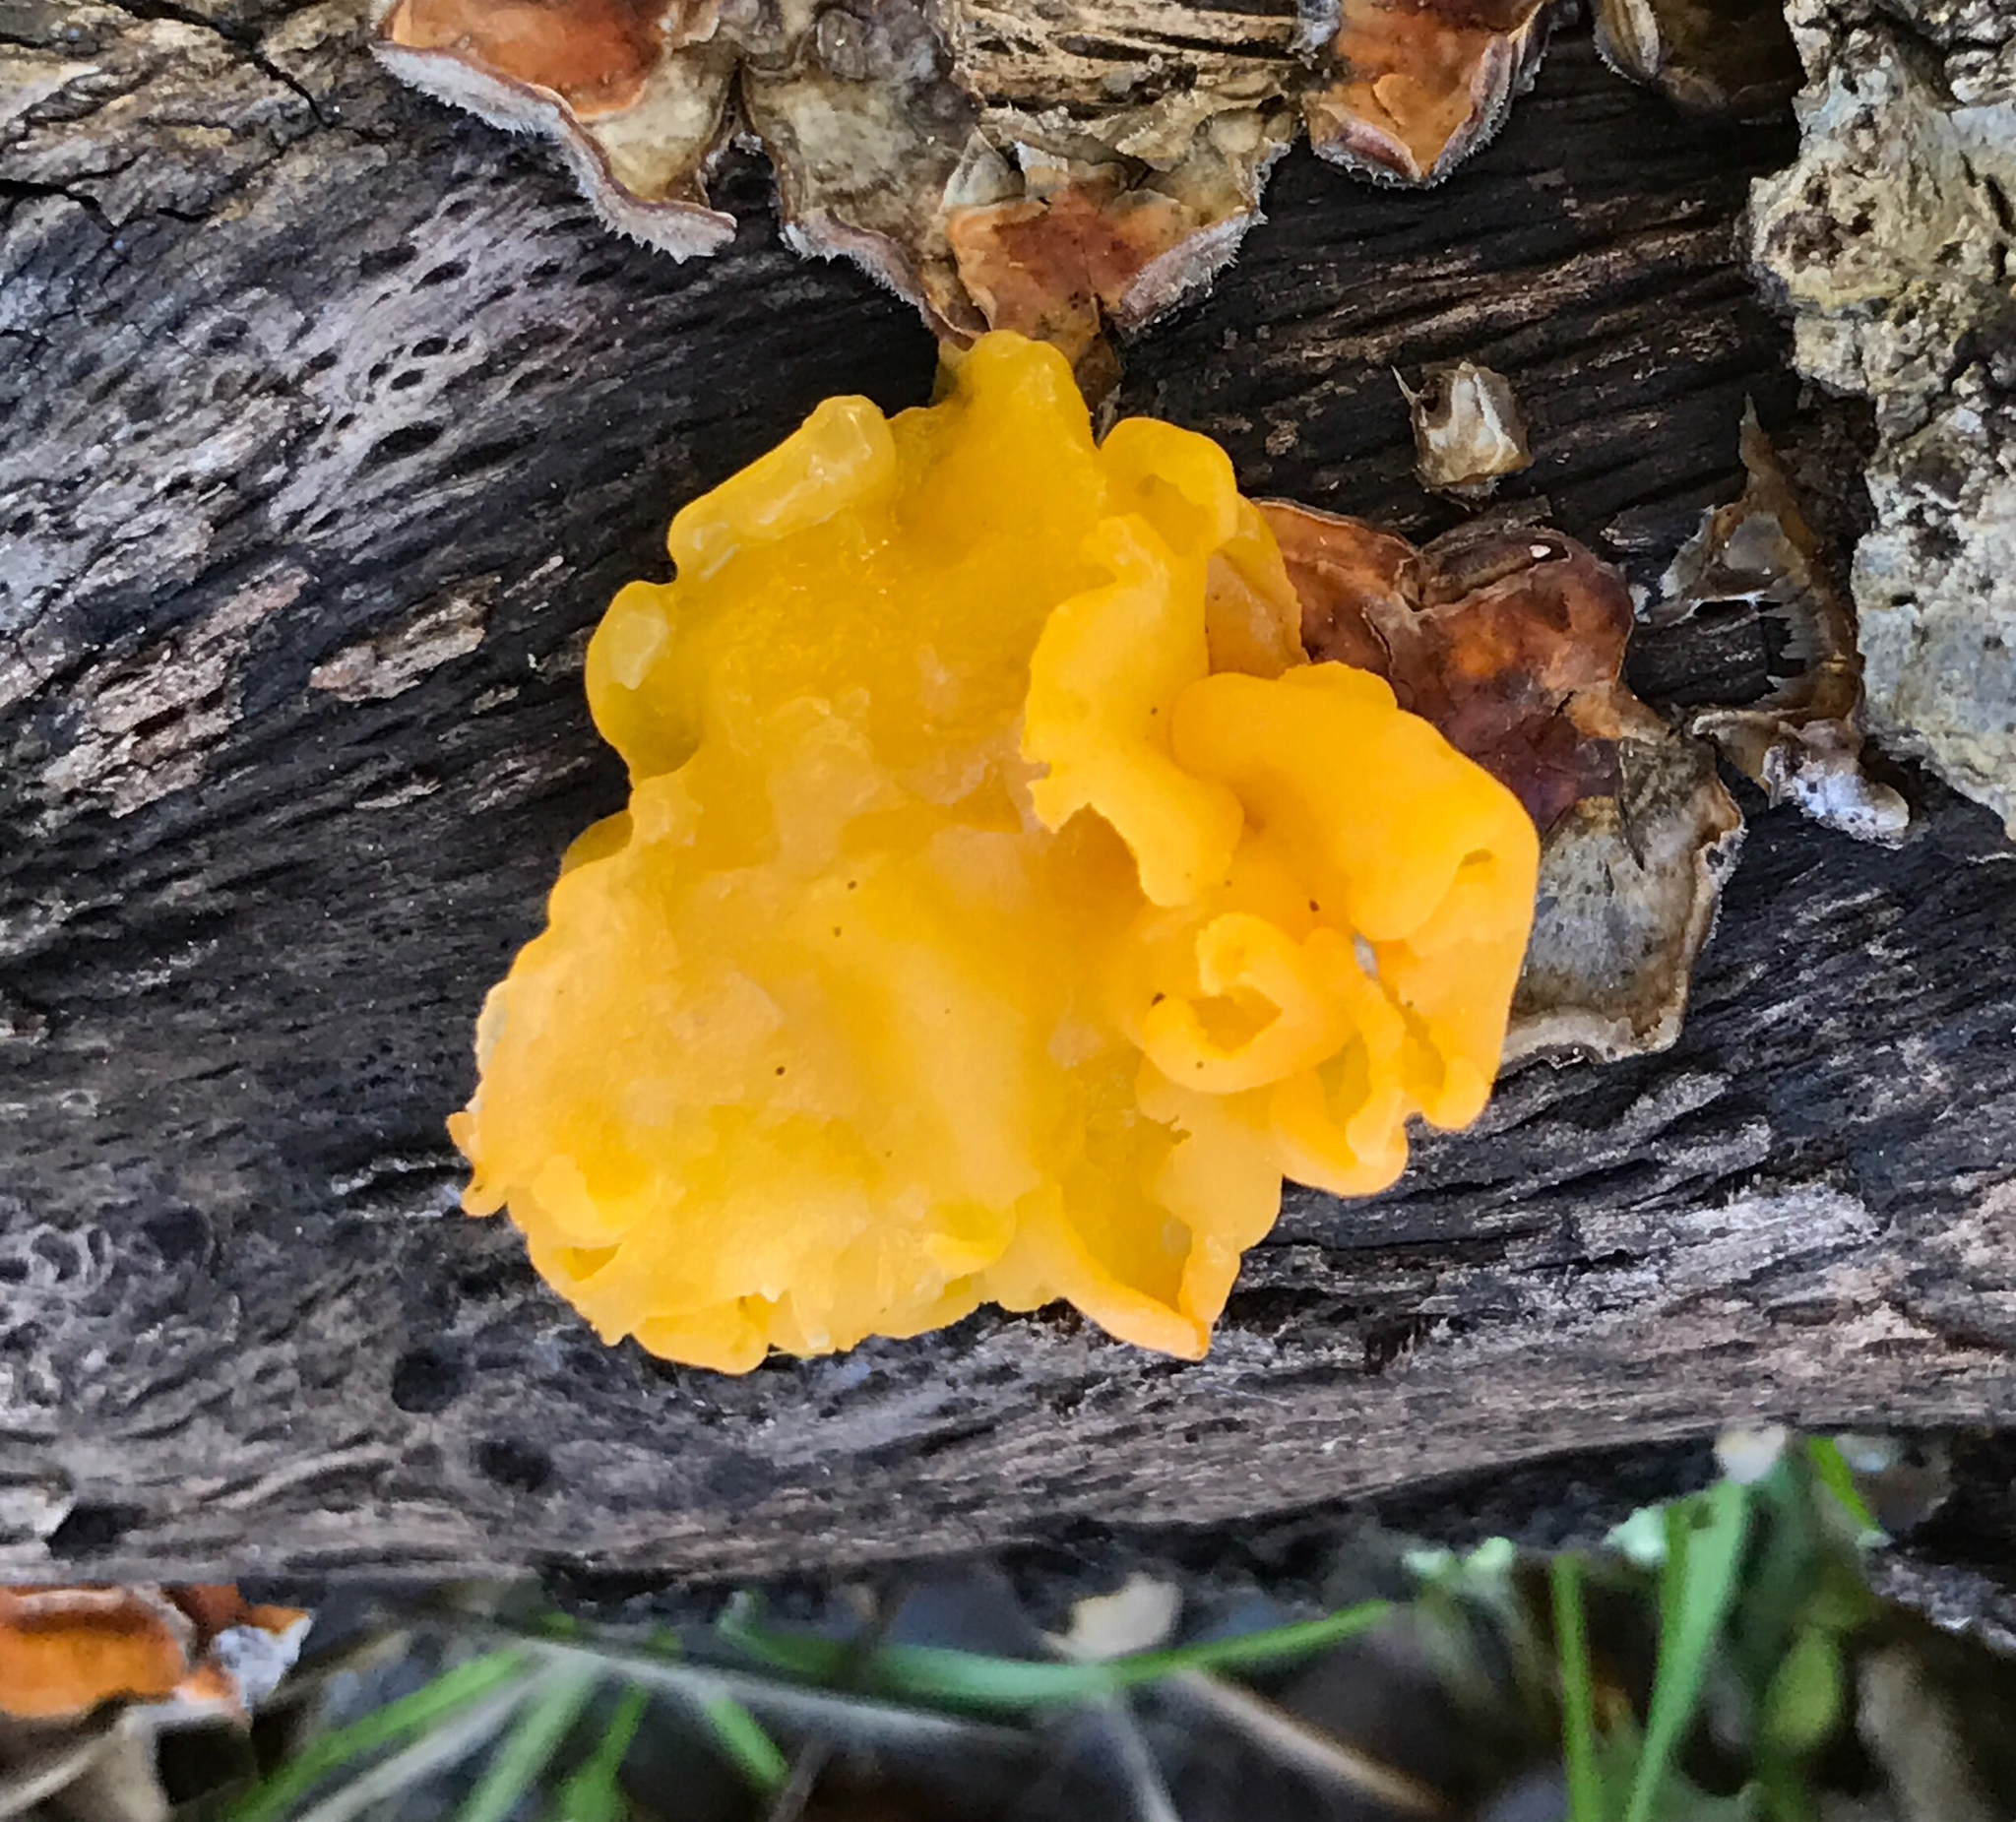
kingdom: Fungi
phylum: Basidiomycota
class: Tremellomycetes
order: Tremellales
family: Naemateliaceae
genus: Naematelia
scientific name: Naematelia aurantia
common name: Golden ear
